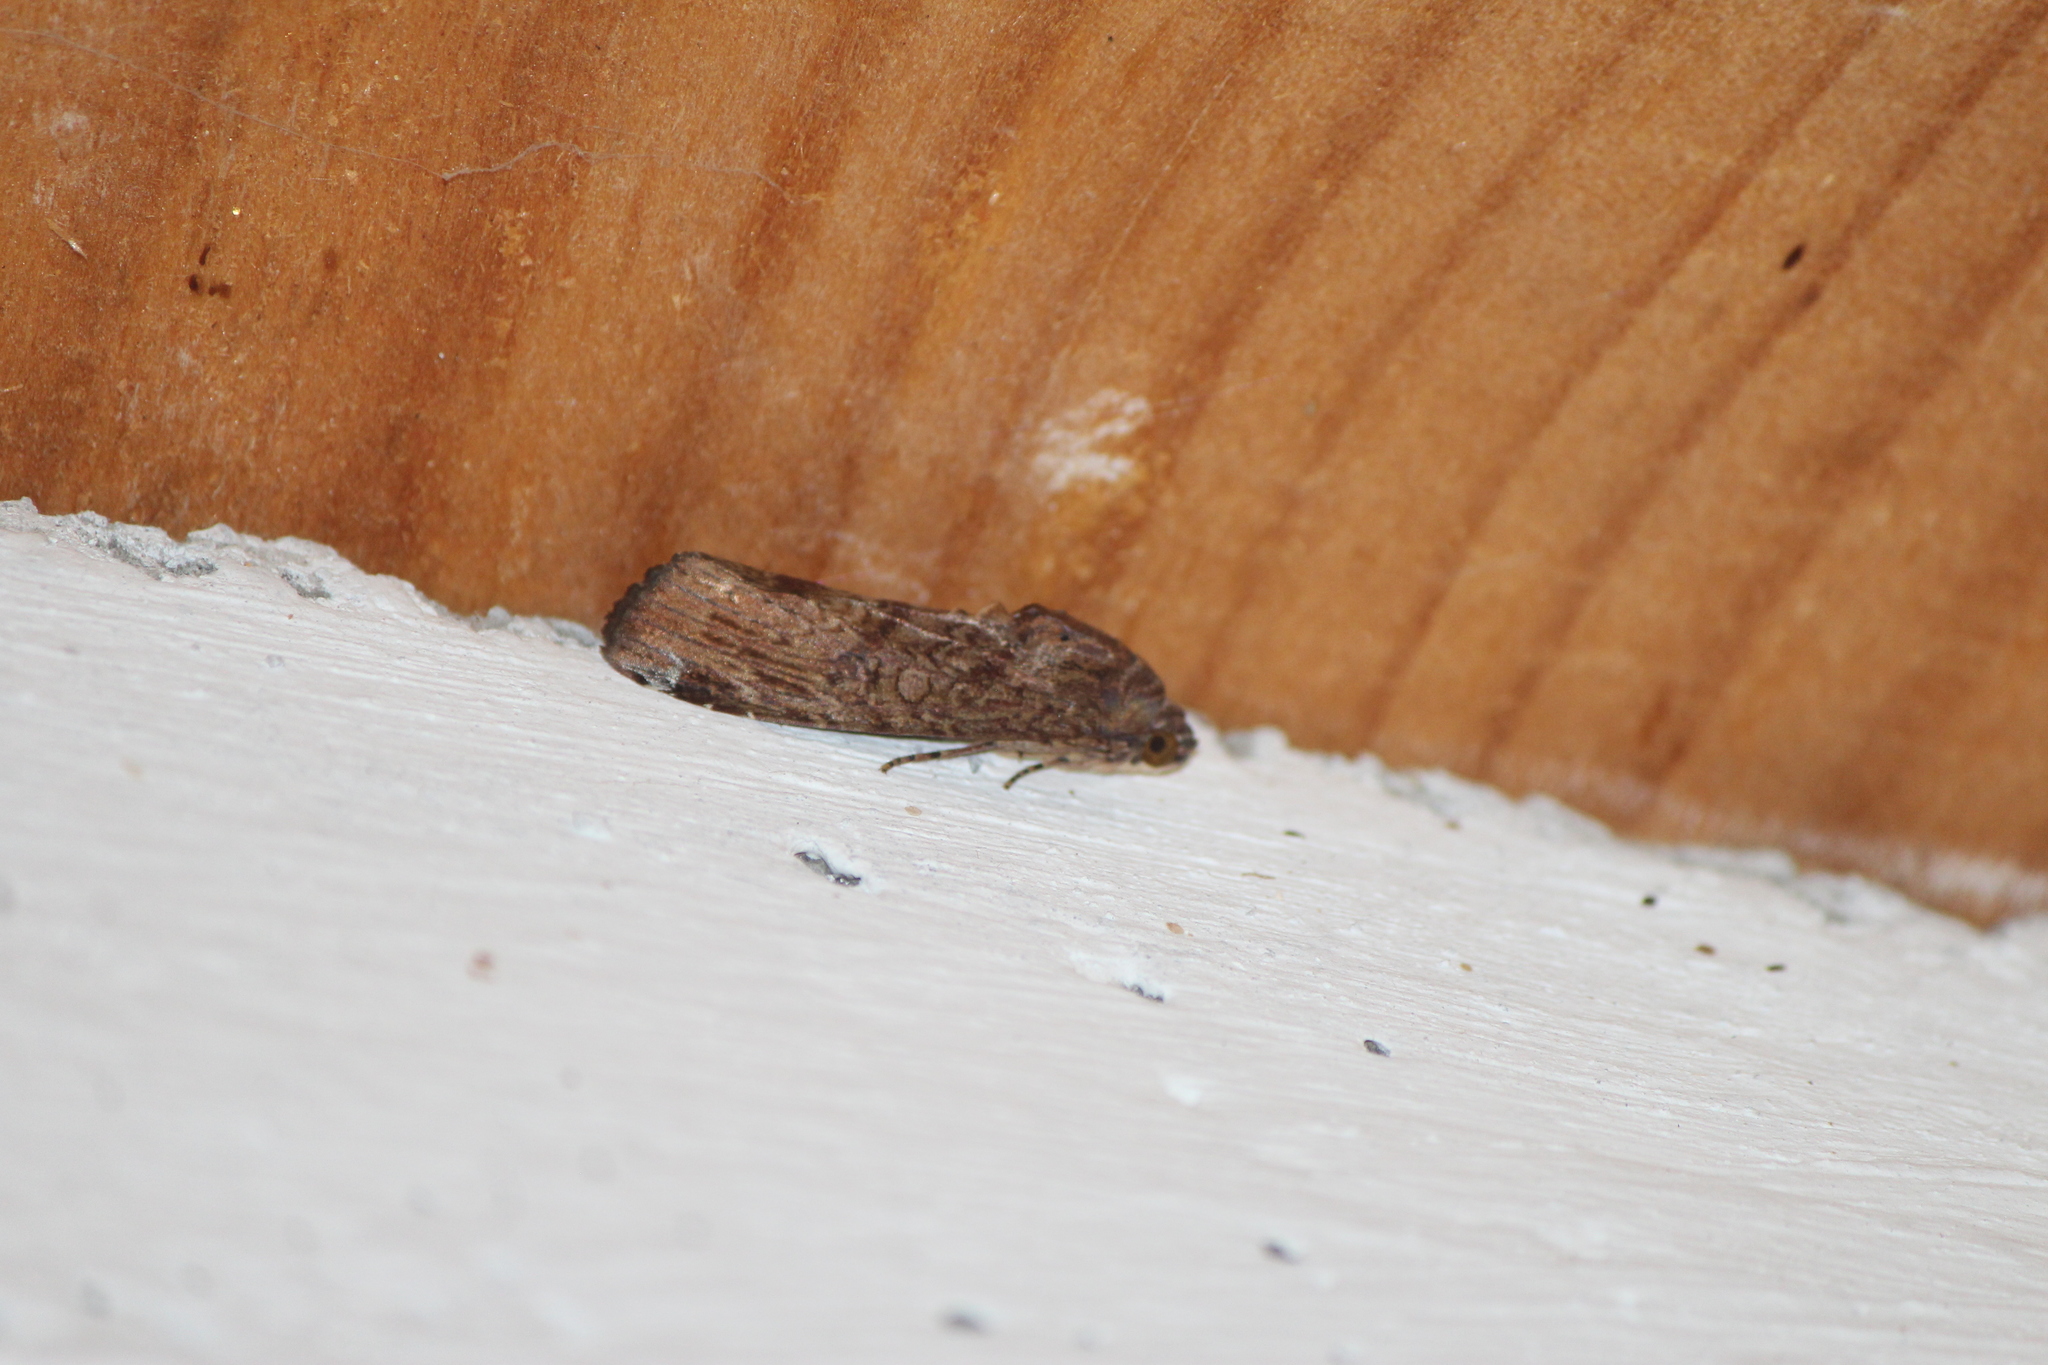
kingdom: Animalia
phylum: Arthropoda
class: Insecta
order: Lepidoptera
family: Noctuidae
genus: Magusa
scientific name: Magusa divaricata
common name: Orb narrow-winged moth
